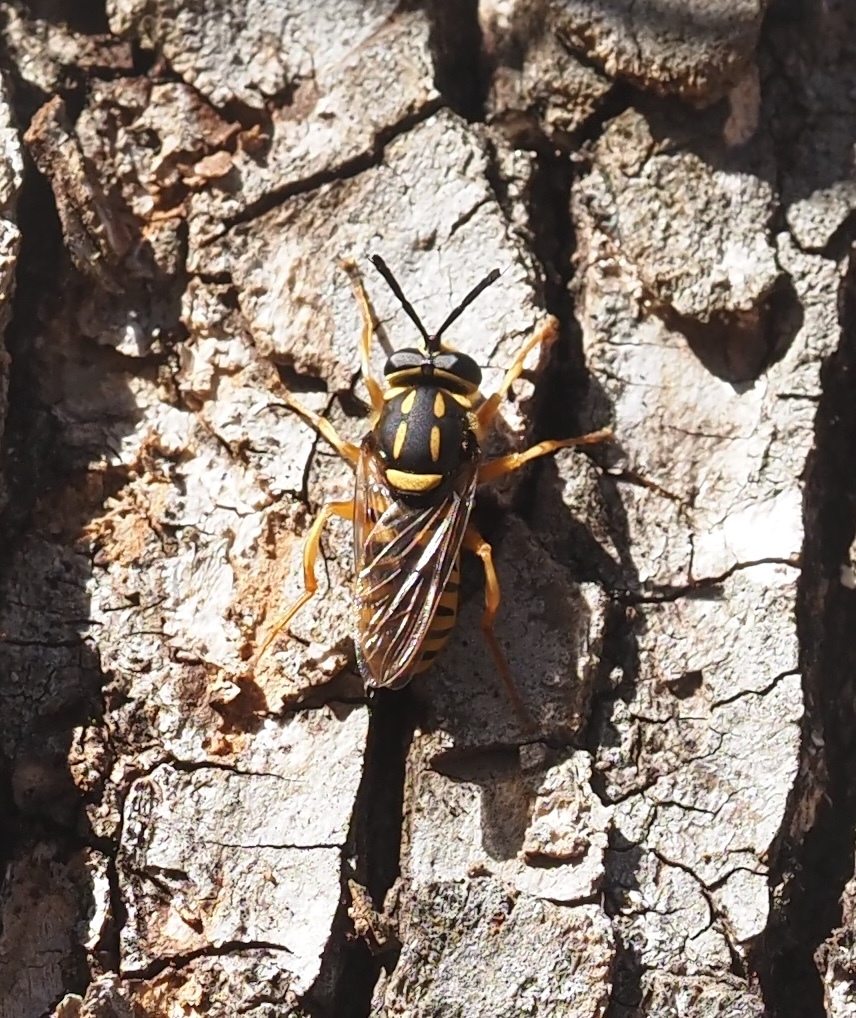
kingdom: Animalia
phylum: Arthropoda
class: Insecta
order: Diptera
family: Syrphidae
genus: Sphecomyia
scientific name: Sphecomyia vittata
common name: Long-horned yellowjacket fly
